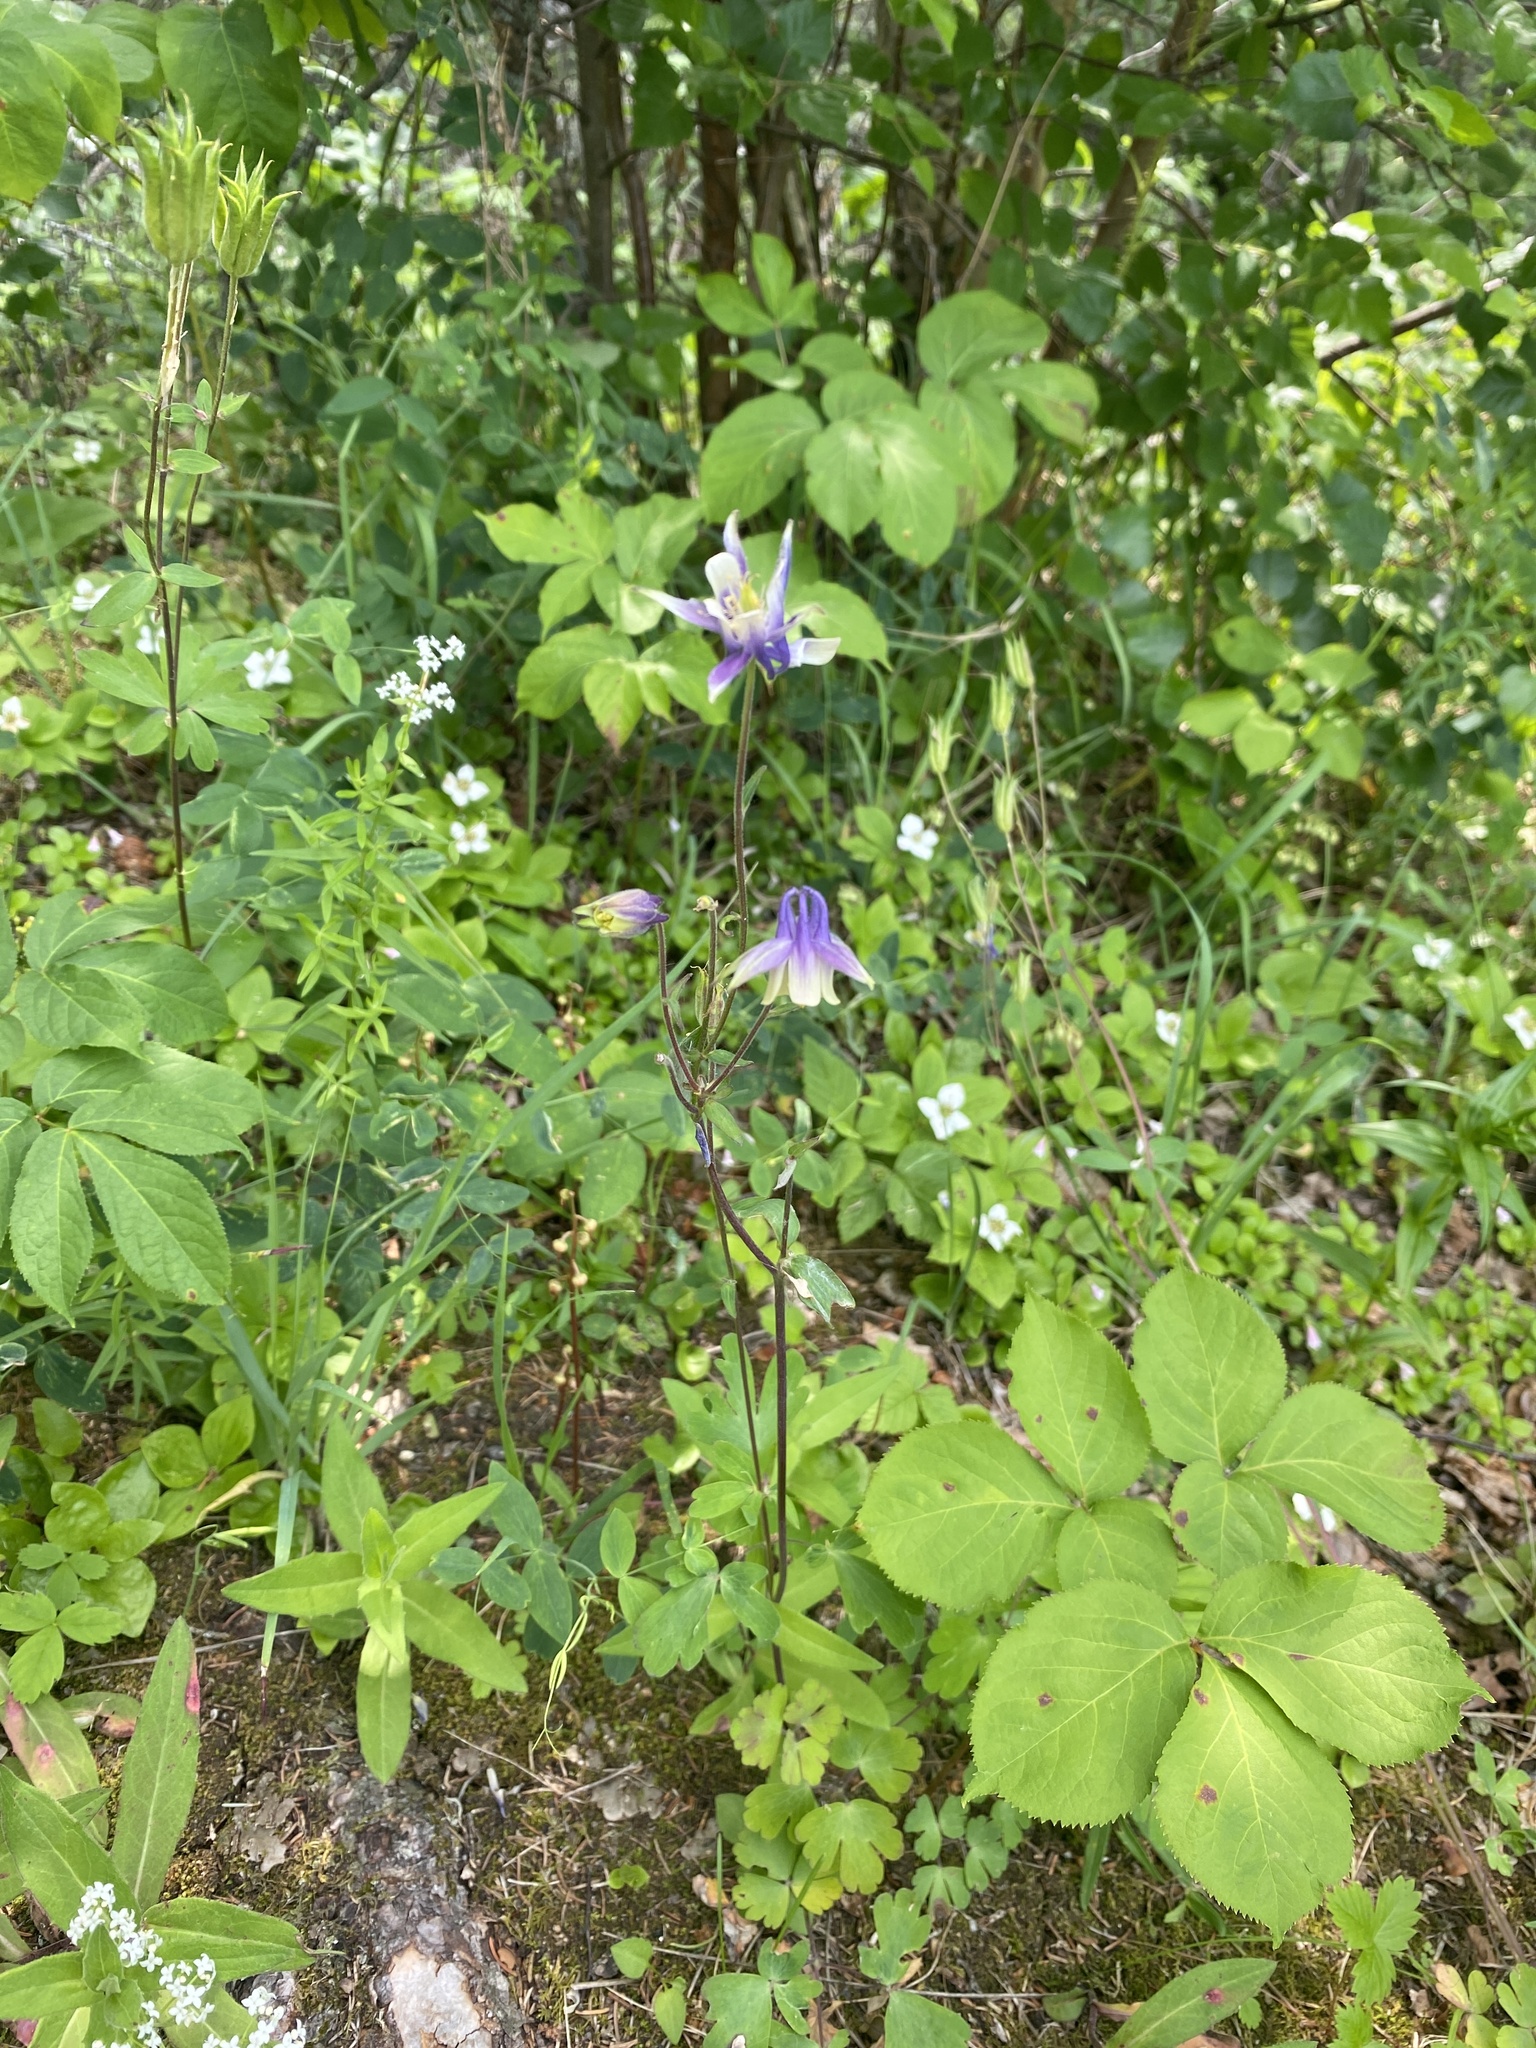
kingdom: Plantae
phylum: Tracheophyta
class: Magnoliopsida
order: Ranunculales
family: Ranunculaceae
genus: Aquilegia
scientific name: Aquilegia brevistyla
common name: Yukon columbine
